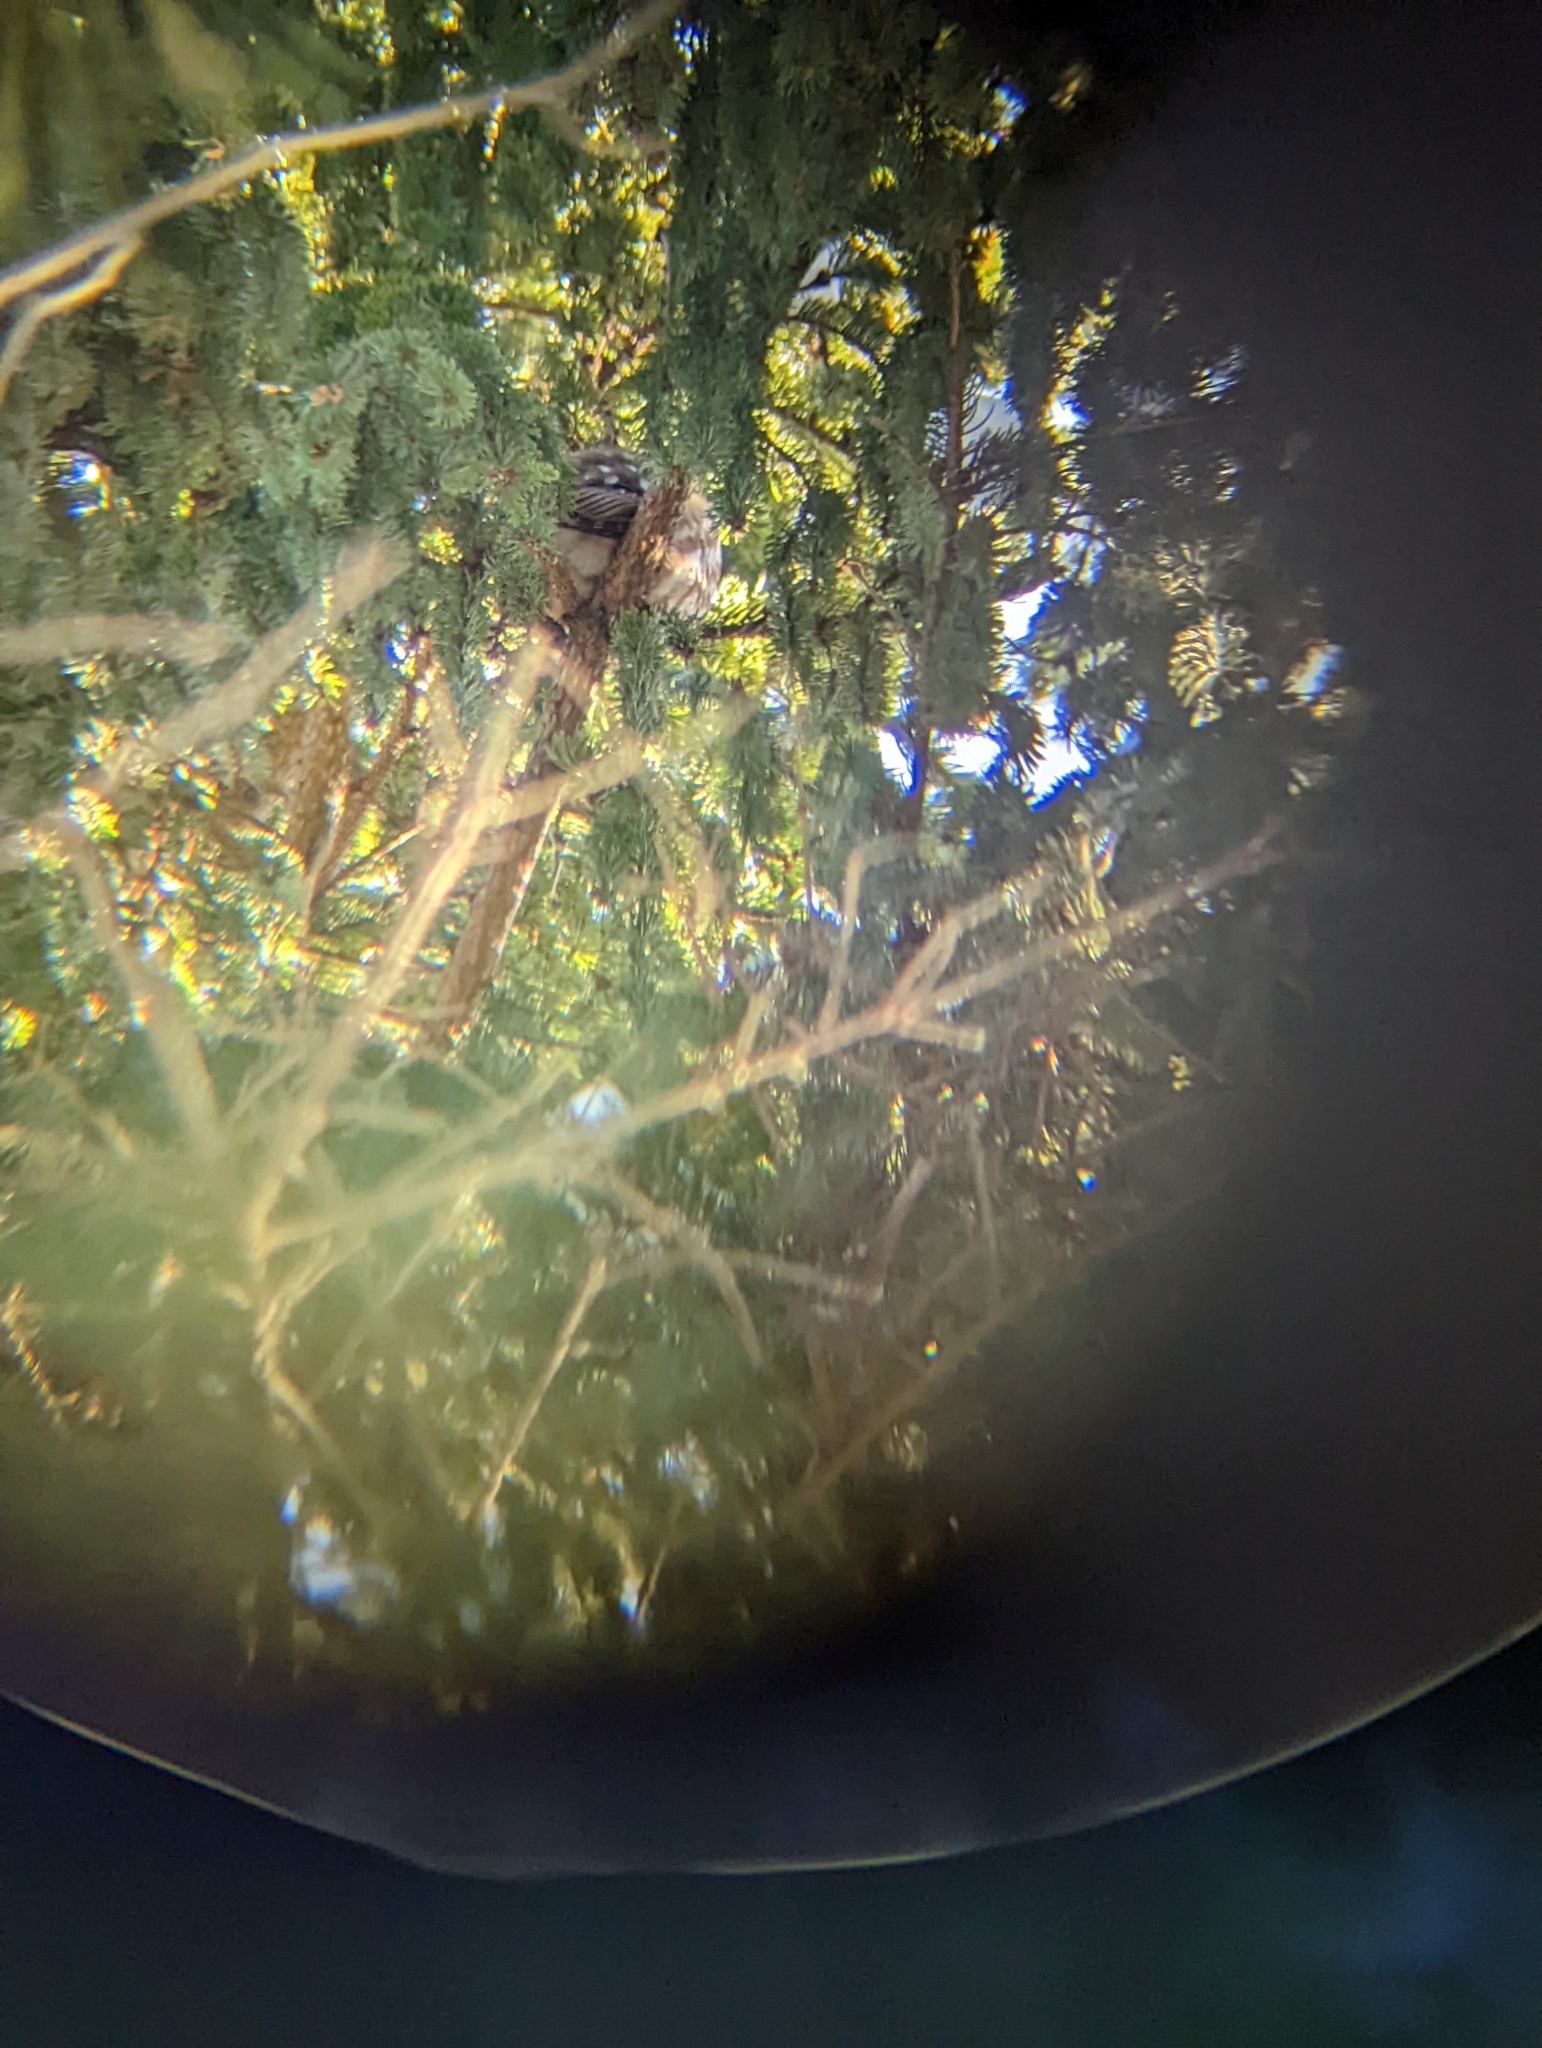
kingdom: Animalia
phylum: Chordata
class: Aves
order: Strigiformes
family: Strigidae
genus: Aegolius
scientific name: Aegolius acadicus
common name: Northern saw-whet owl
